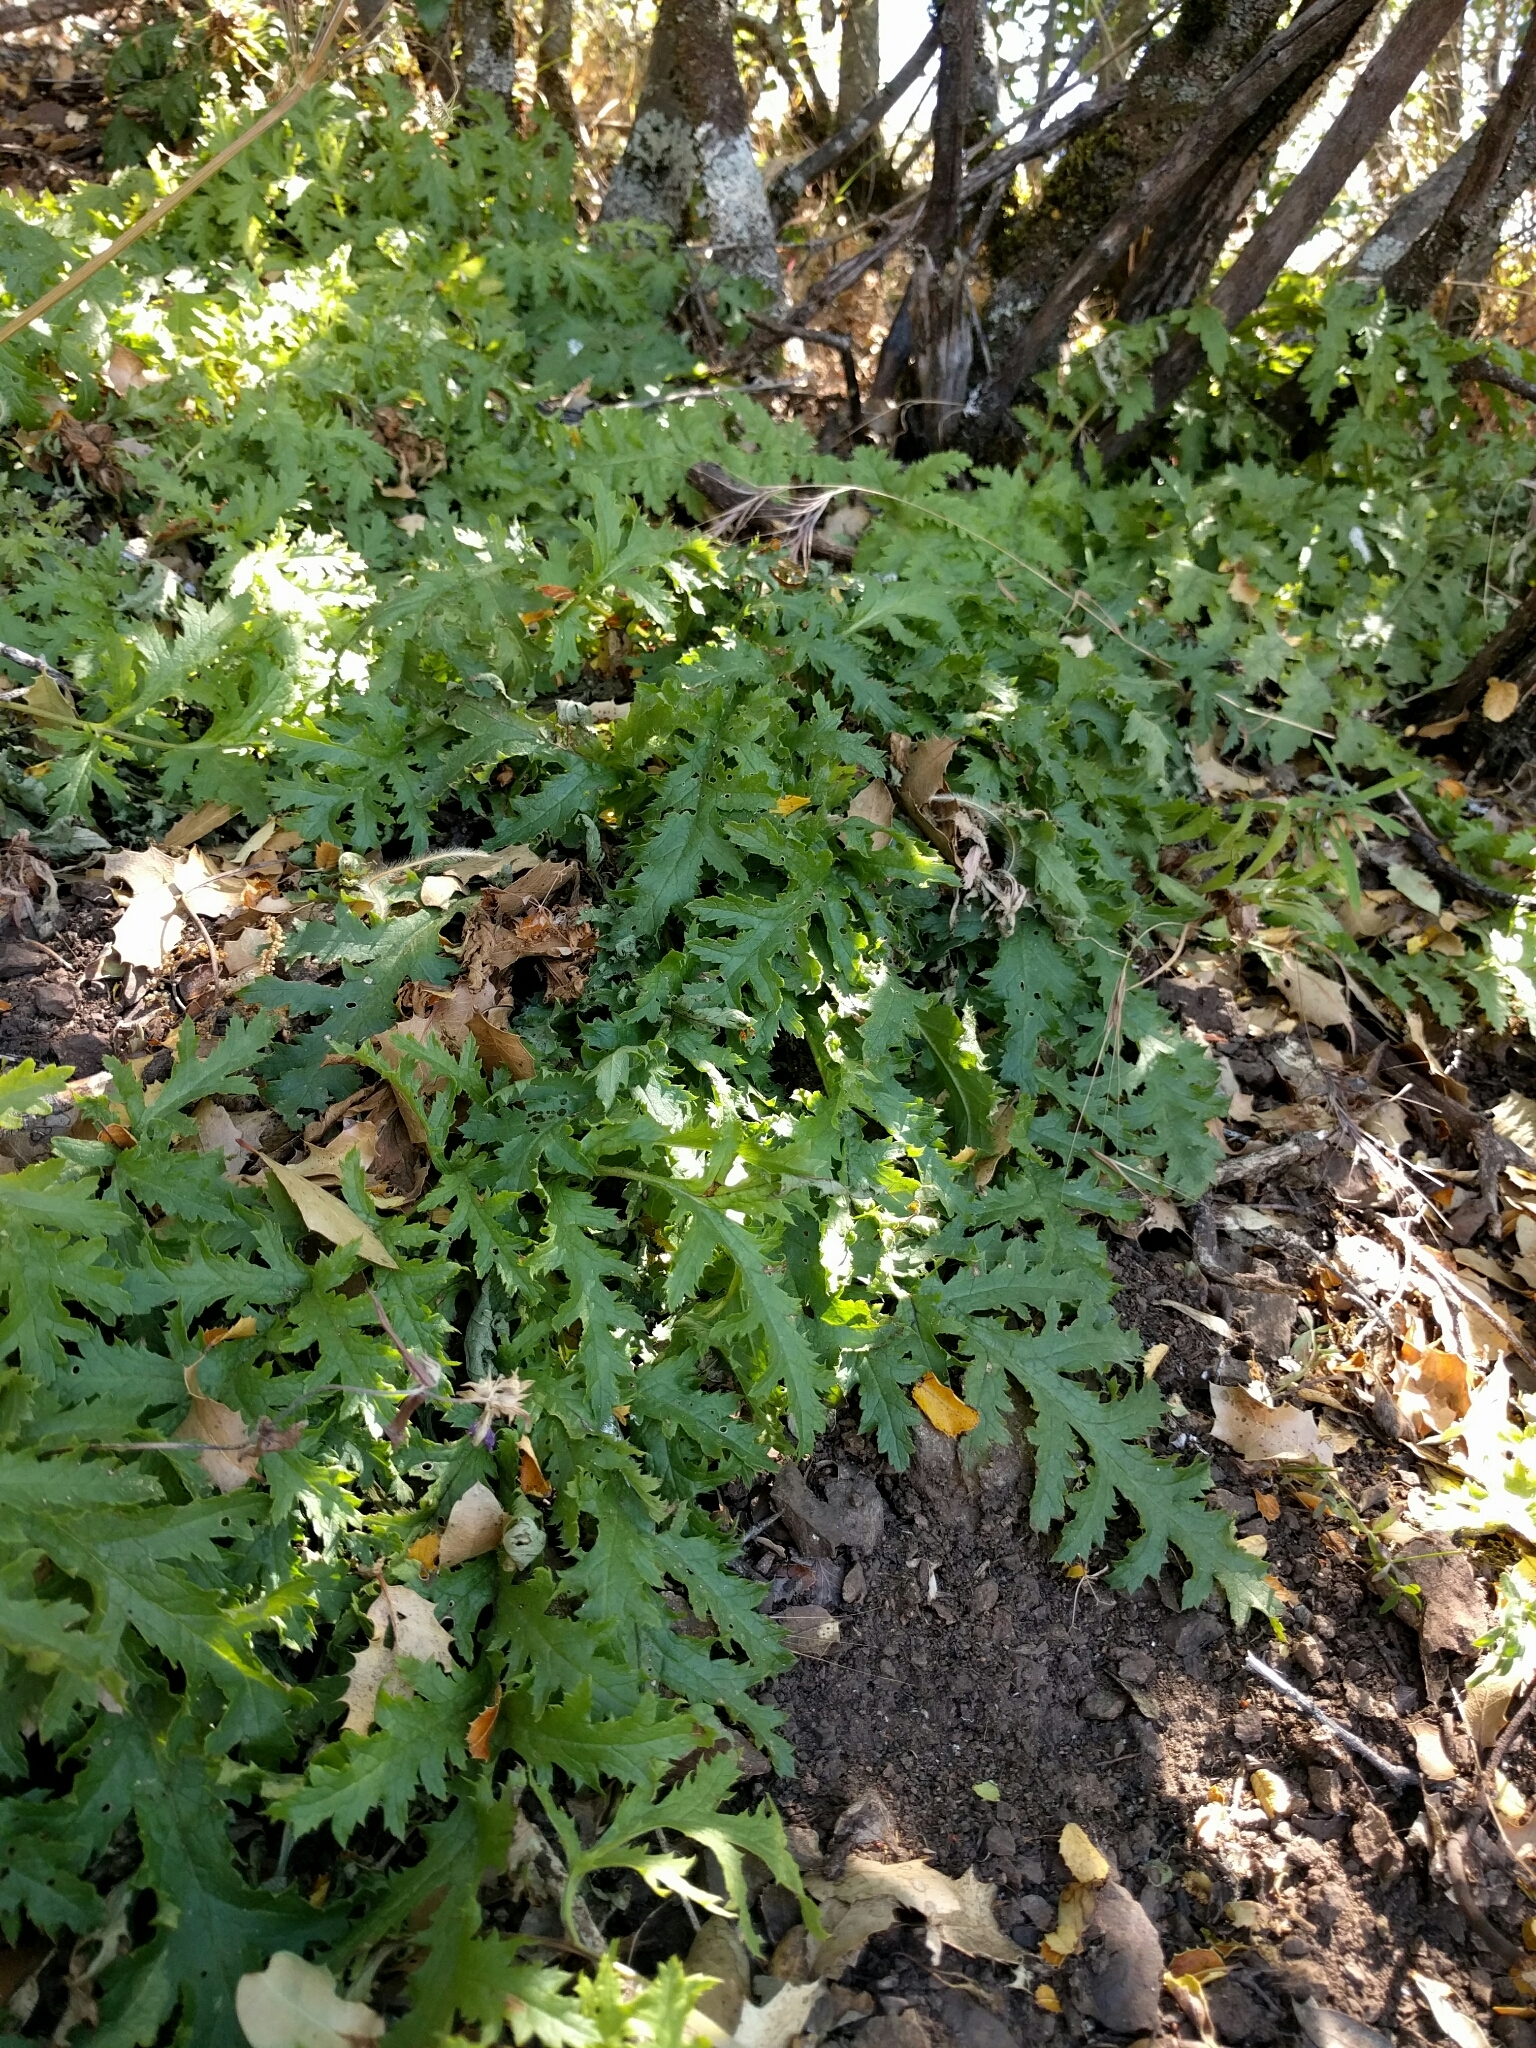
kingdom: Plantae
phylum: Tracheophyta
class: Magnoliopsida
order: Lamiales
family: Orobanchaceae
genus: Pedicularis
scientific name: Pedicularis densiflora
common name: Indian warrior
